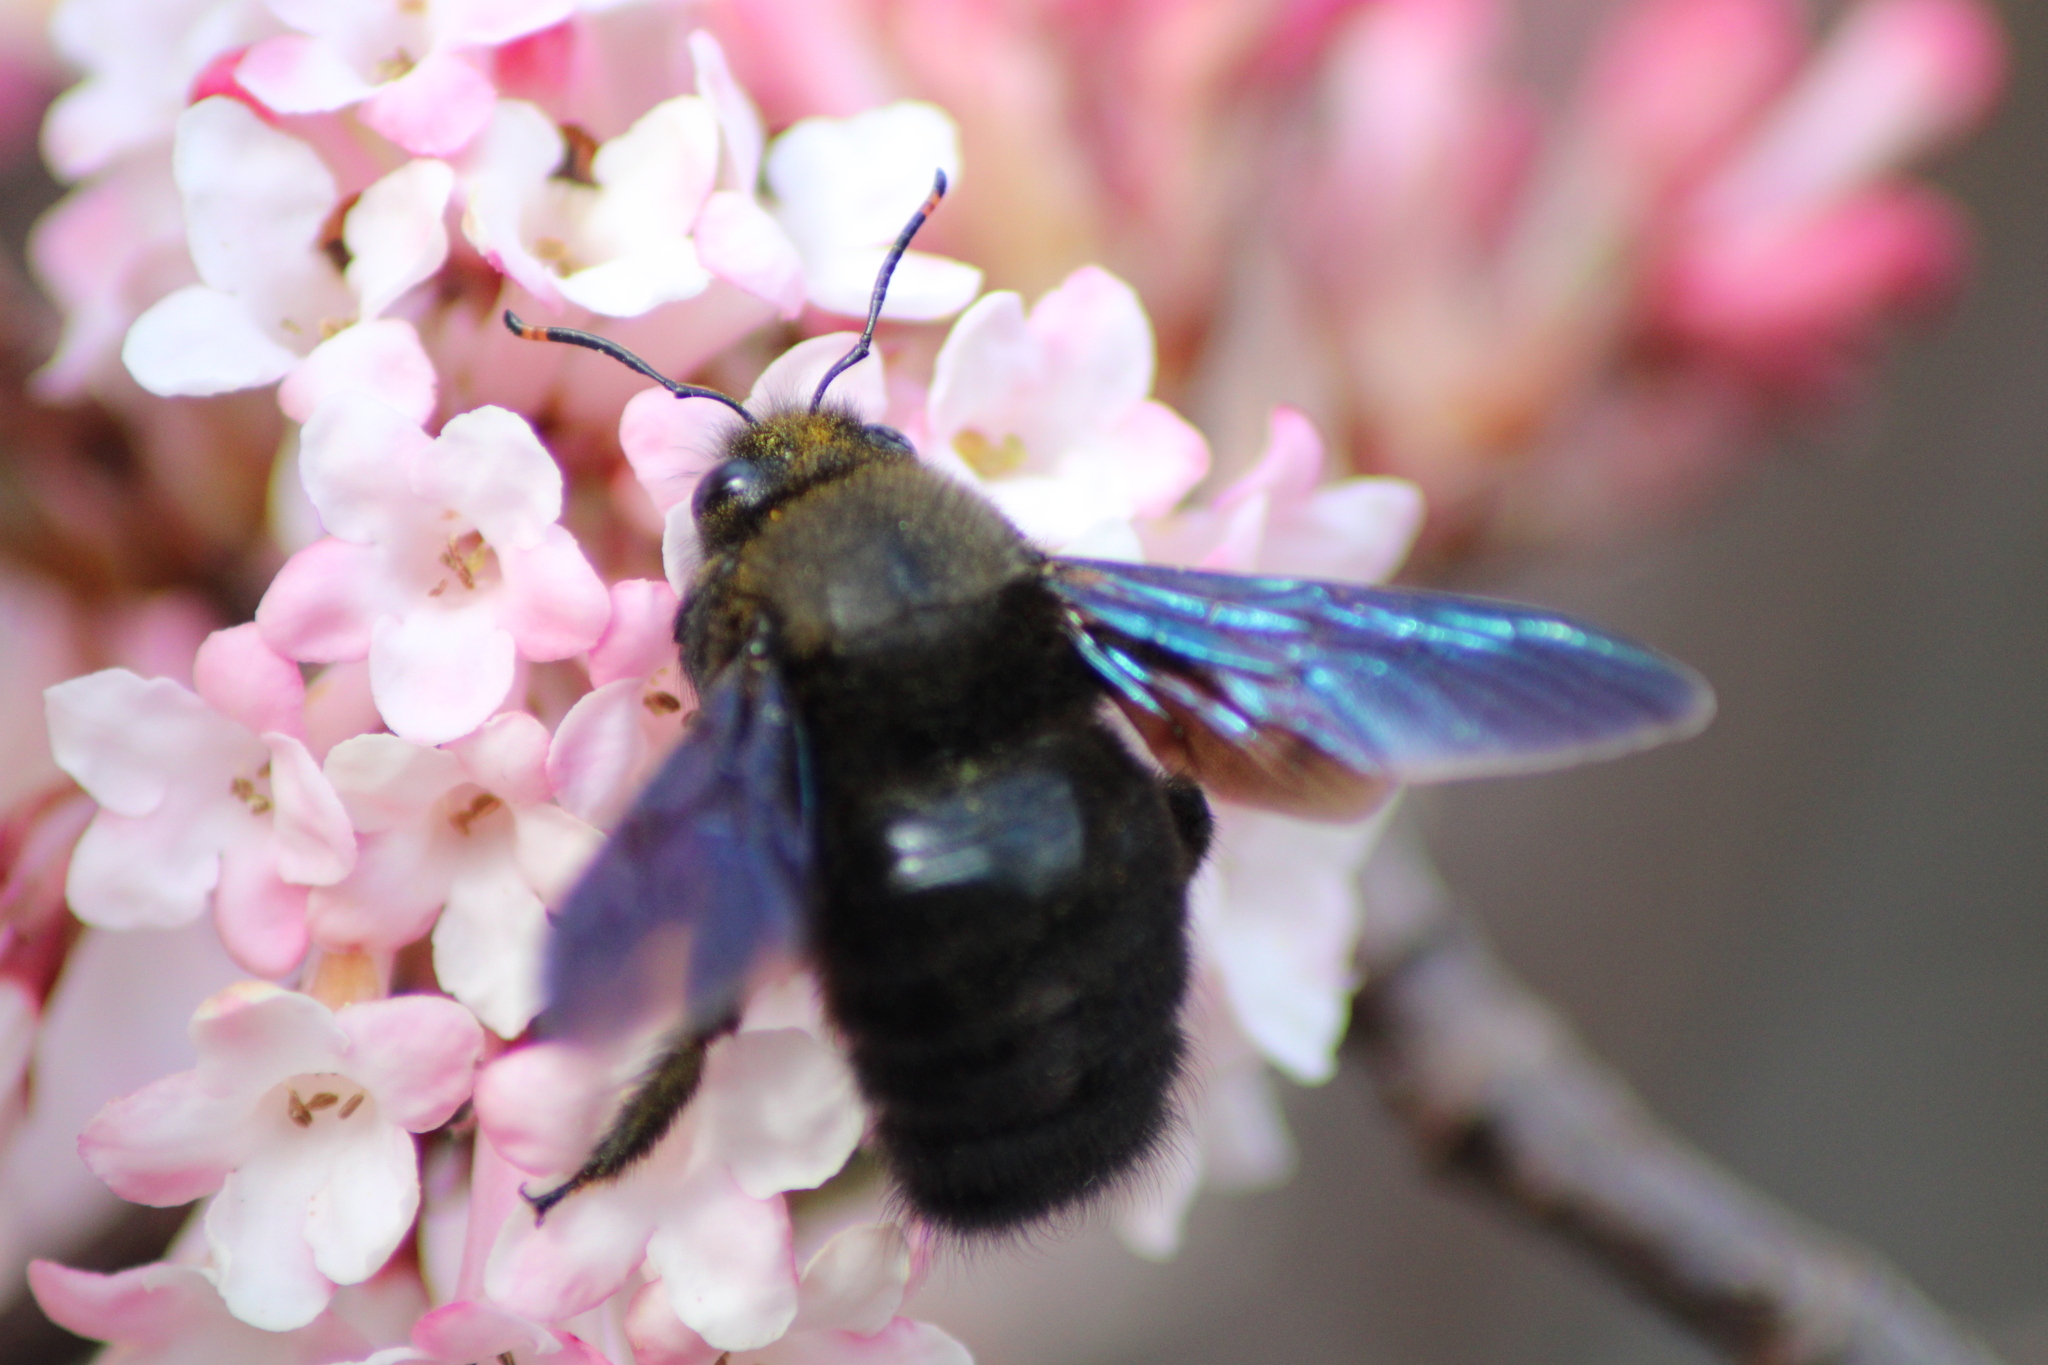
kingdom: Animalia
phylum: Arthropoda
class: Insecta
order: Hymenoptera
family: Apidae
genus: Xylocopa
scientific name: Xylocopa violacea
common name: Violet carpenter bee
